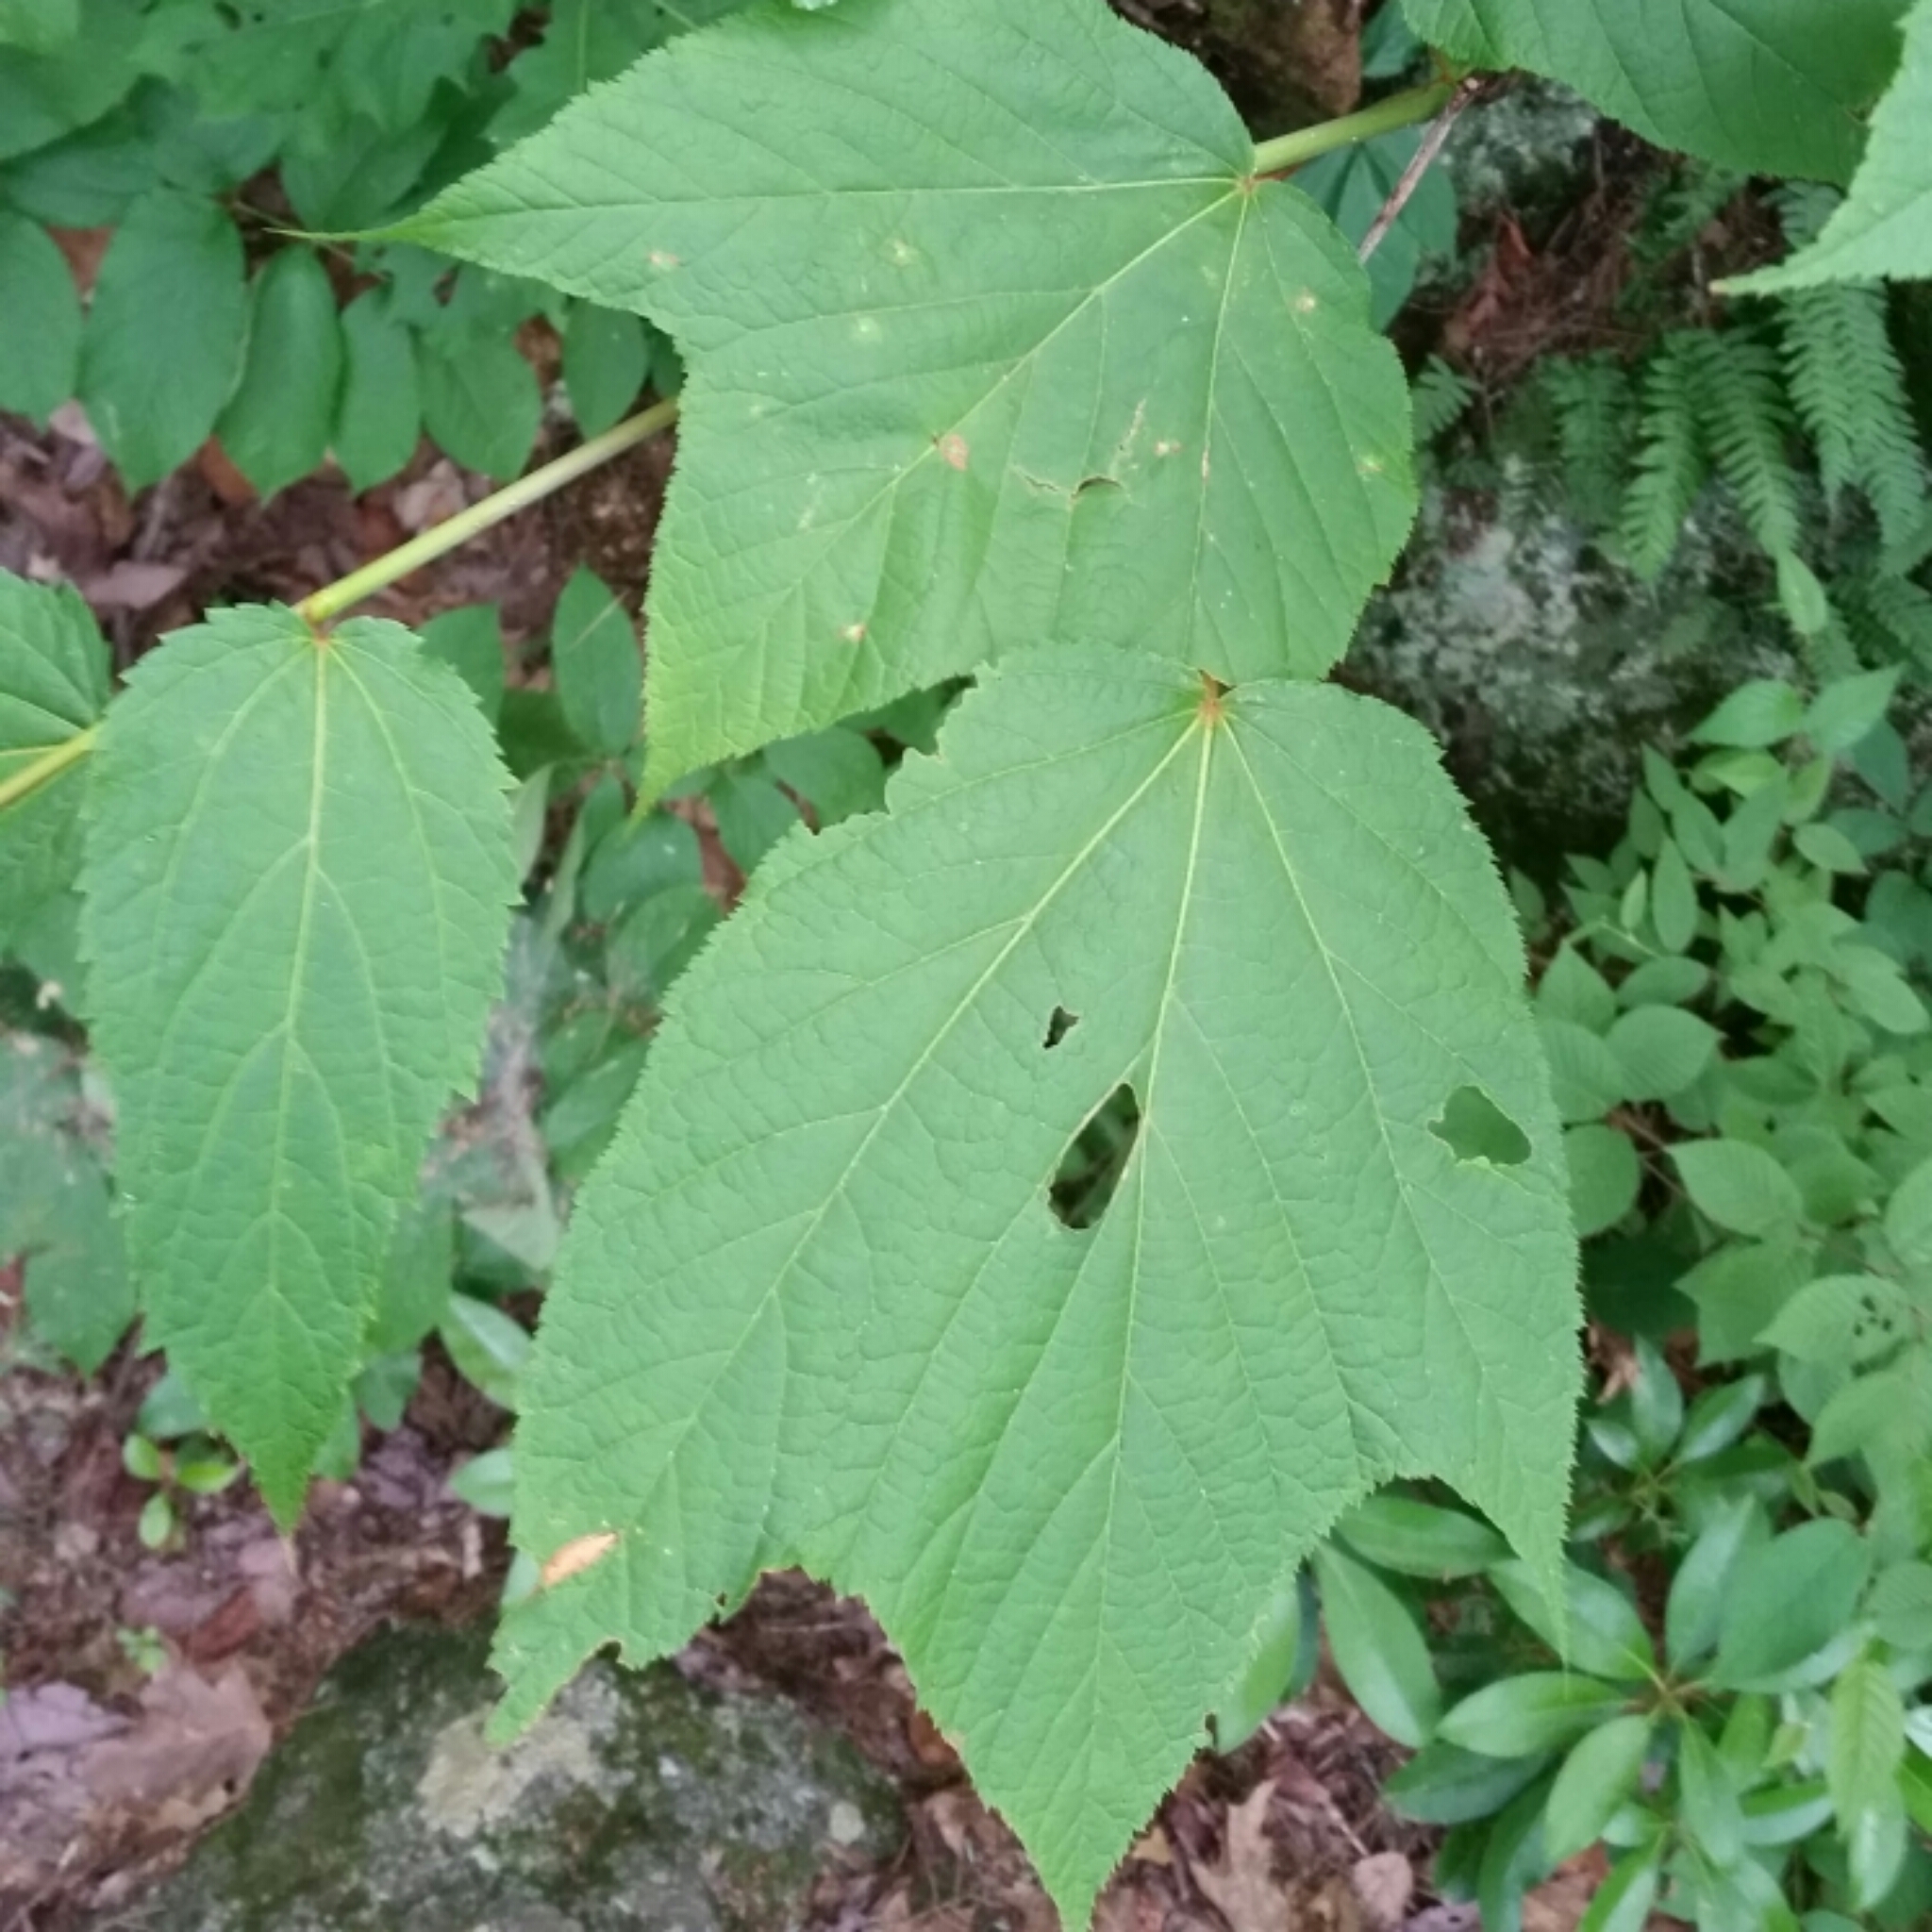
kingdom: Plantae
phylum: Tracheophyta
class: Magnoliopsida
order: Sapindales
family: Sapindaceae
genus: Acer
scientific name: Acer pensylvanicum
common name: Moosewood
